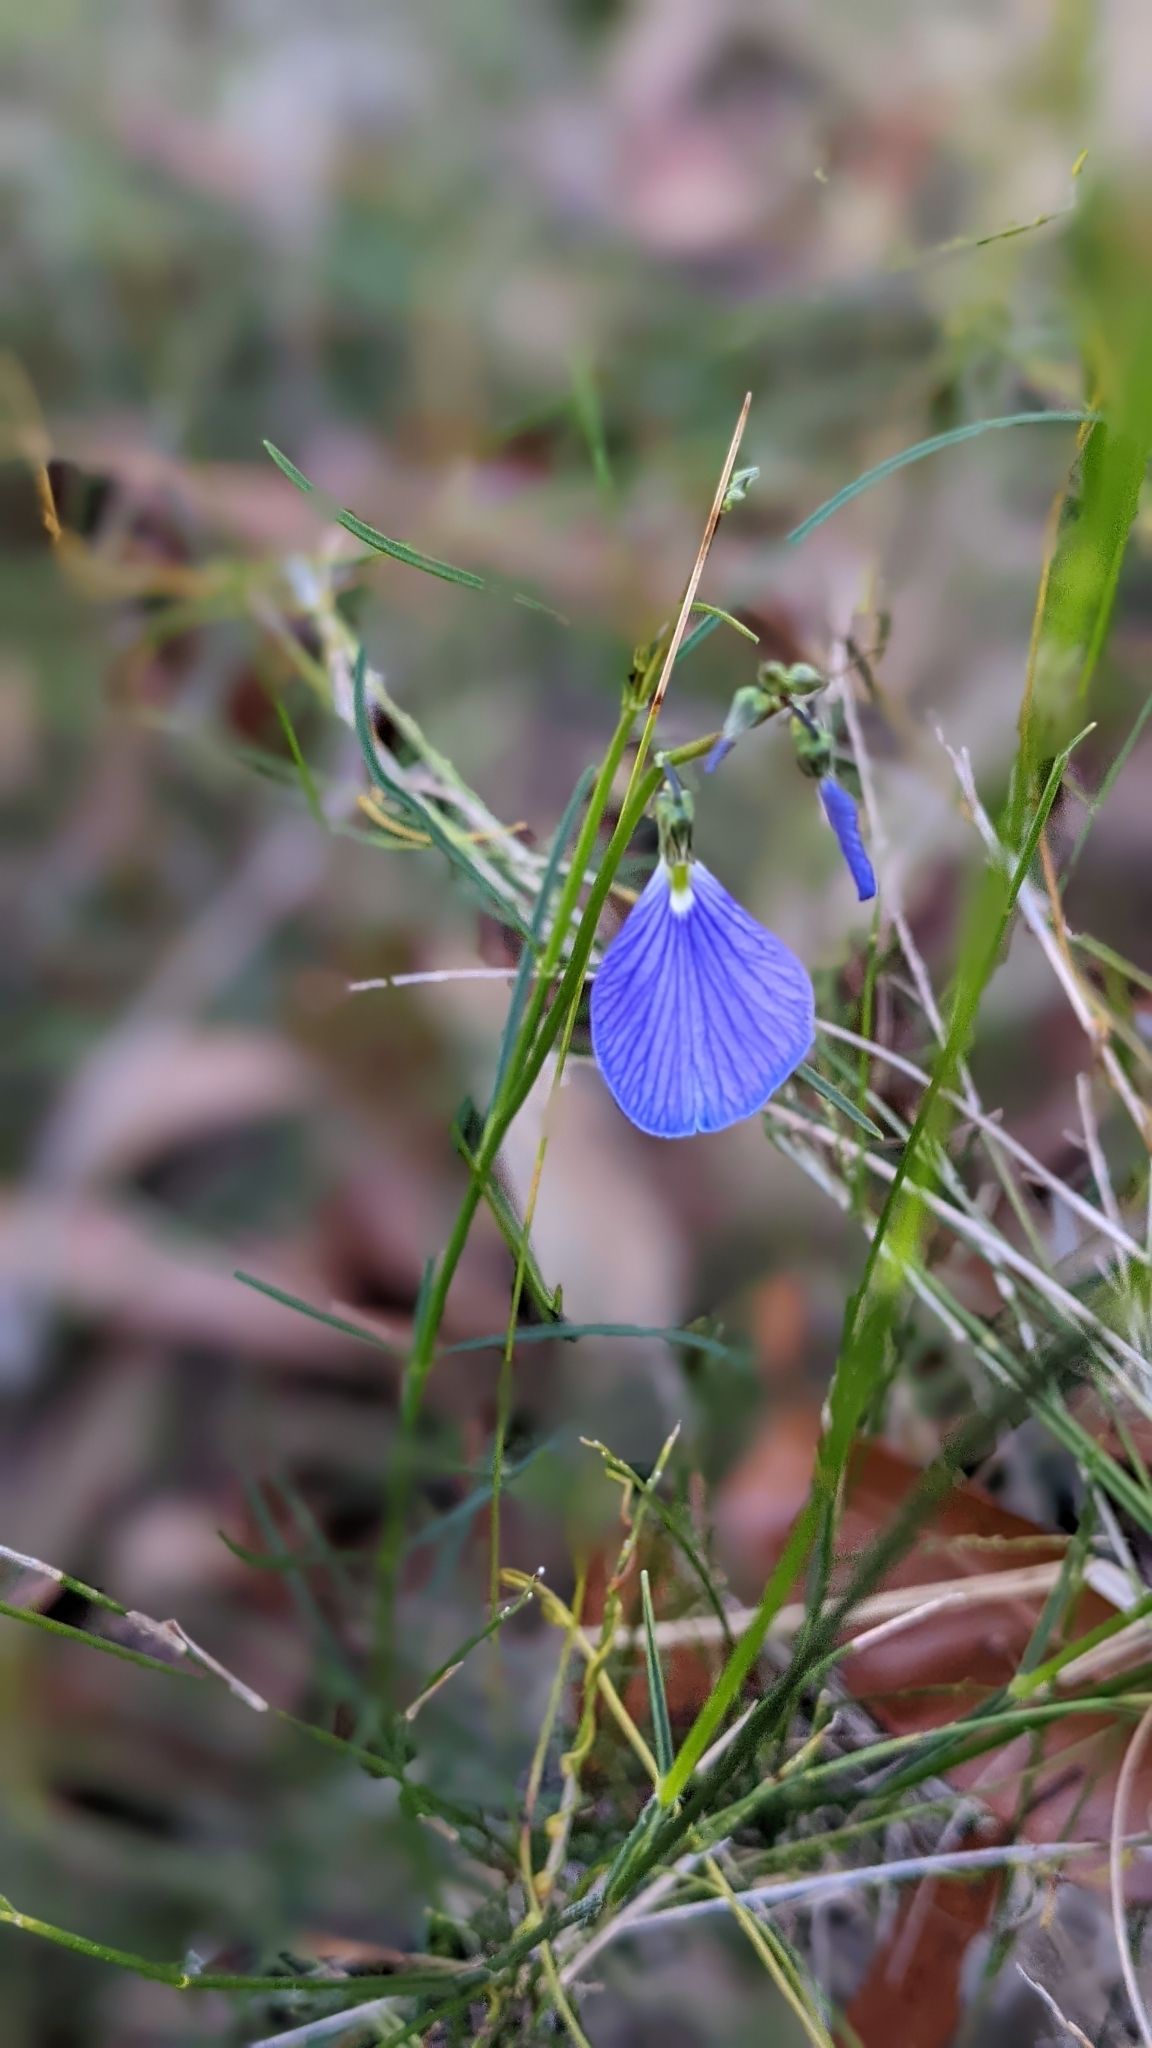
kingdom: Plantae
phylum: Tracheophyta
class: Magnoliopsida
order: Malpighiales
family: Violaceae
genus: Pigea
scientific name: Pigea monopetala
